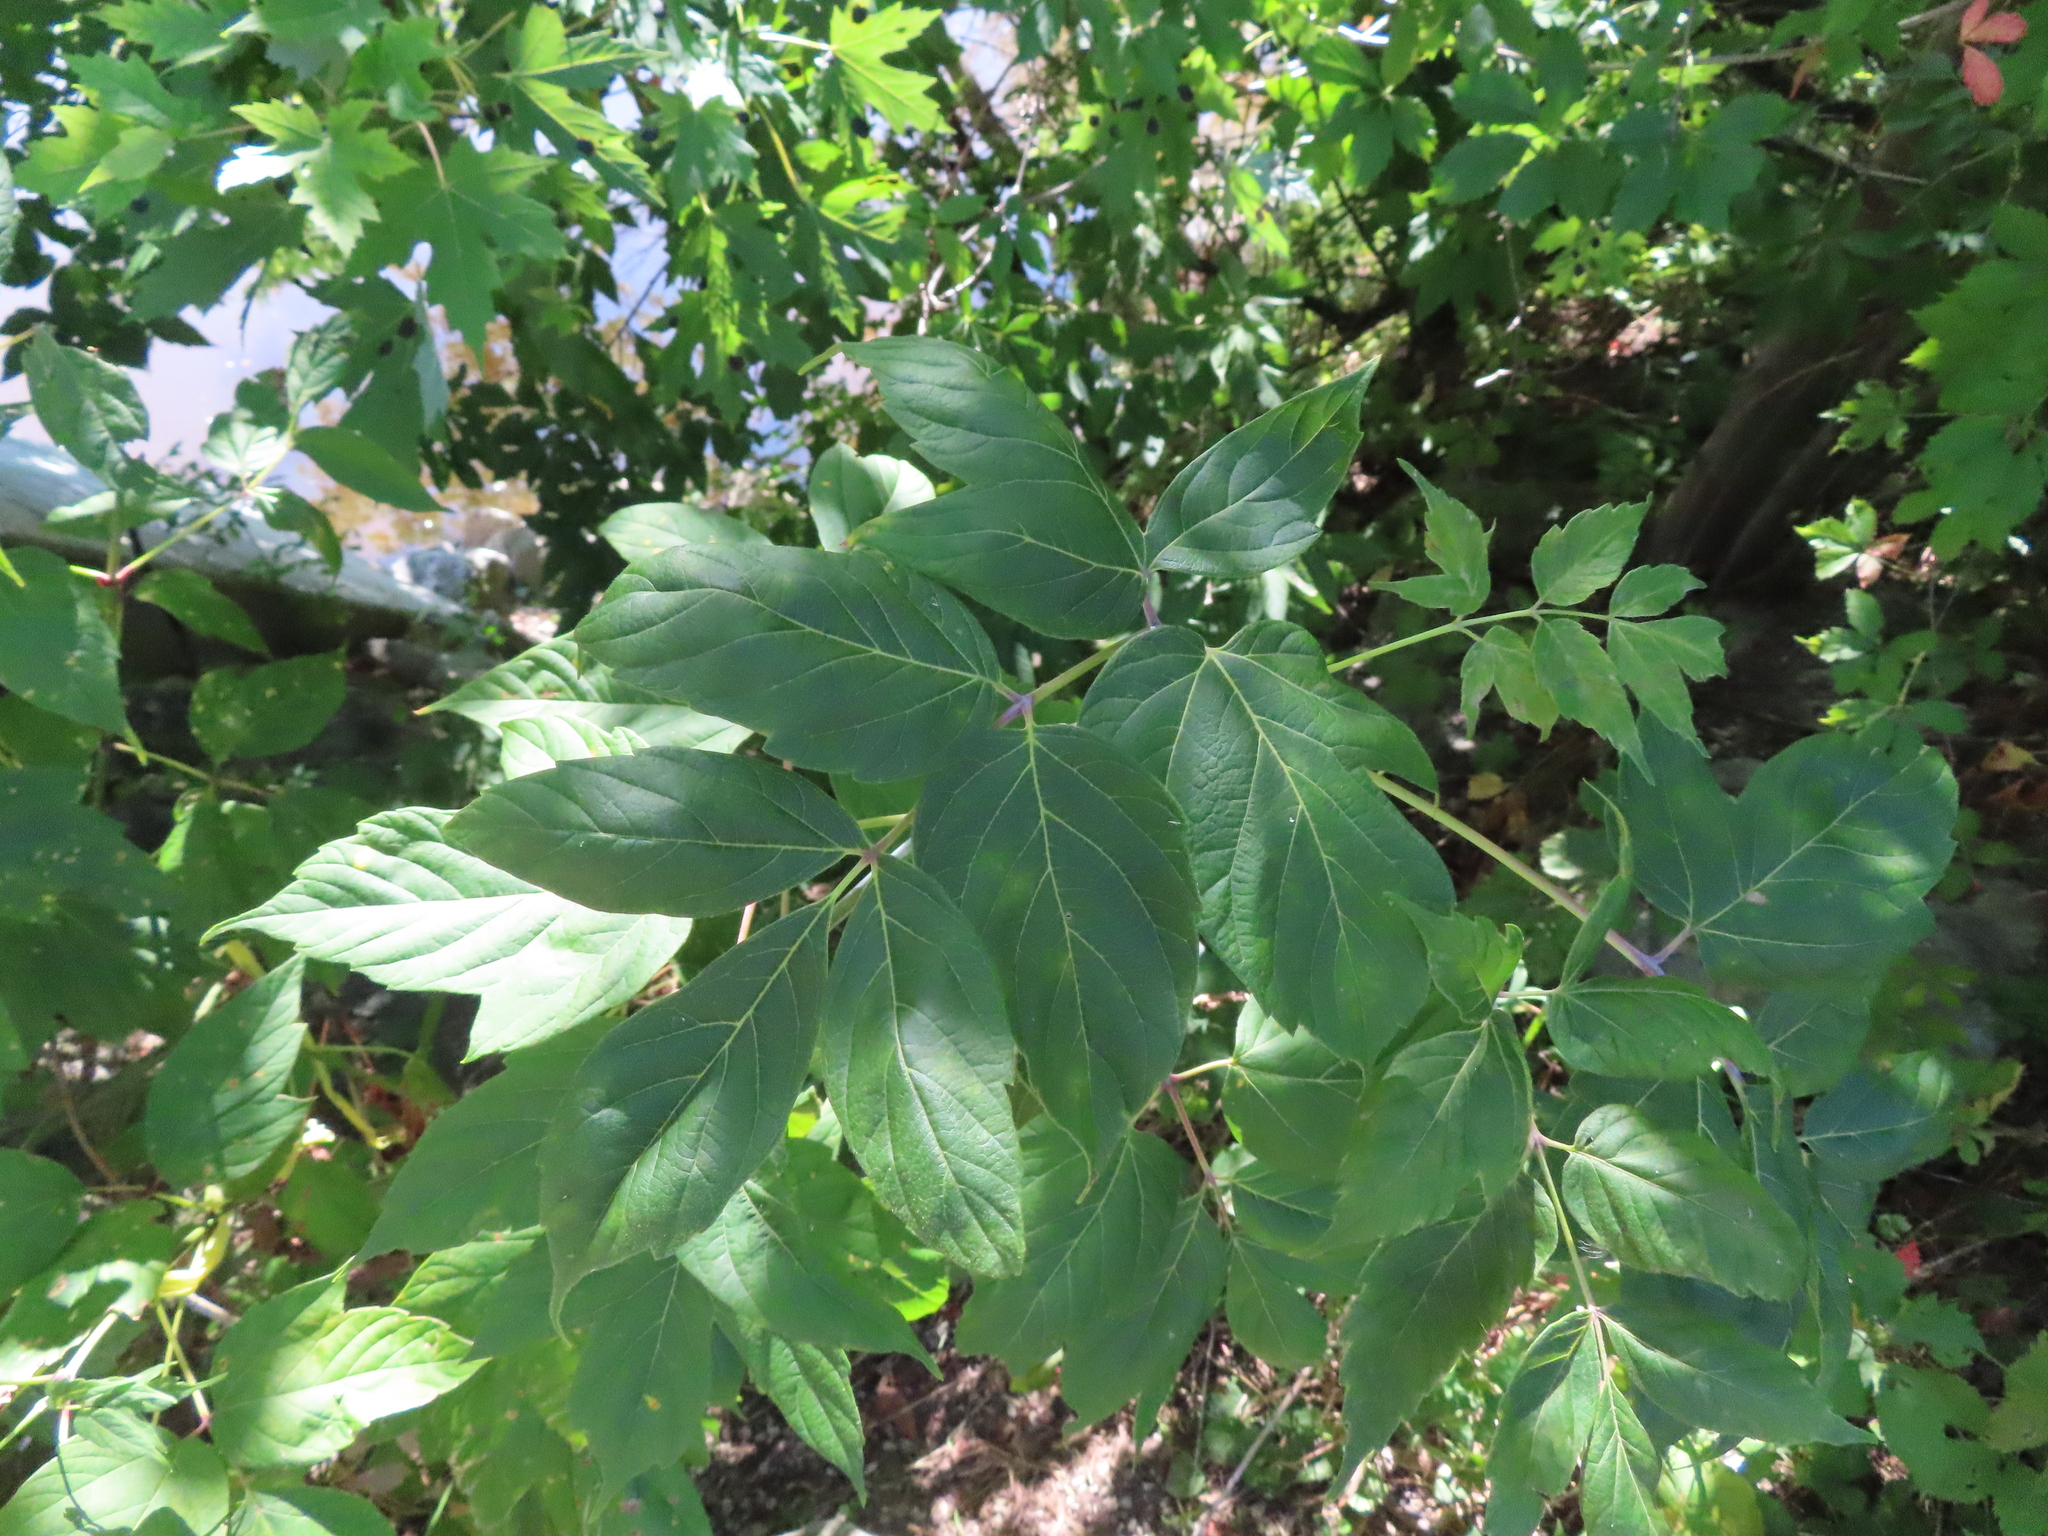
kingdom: Plantae
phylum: Tracheophyta
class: Magnoliopsida
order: Sapindales
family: Sapindaceae
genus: Acer
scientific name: Acer negundo
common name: Ashleaf maple
